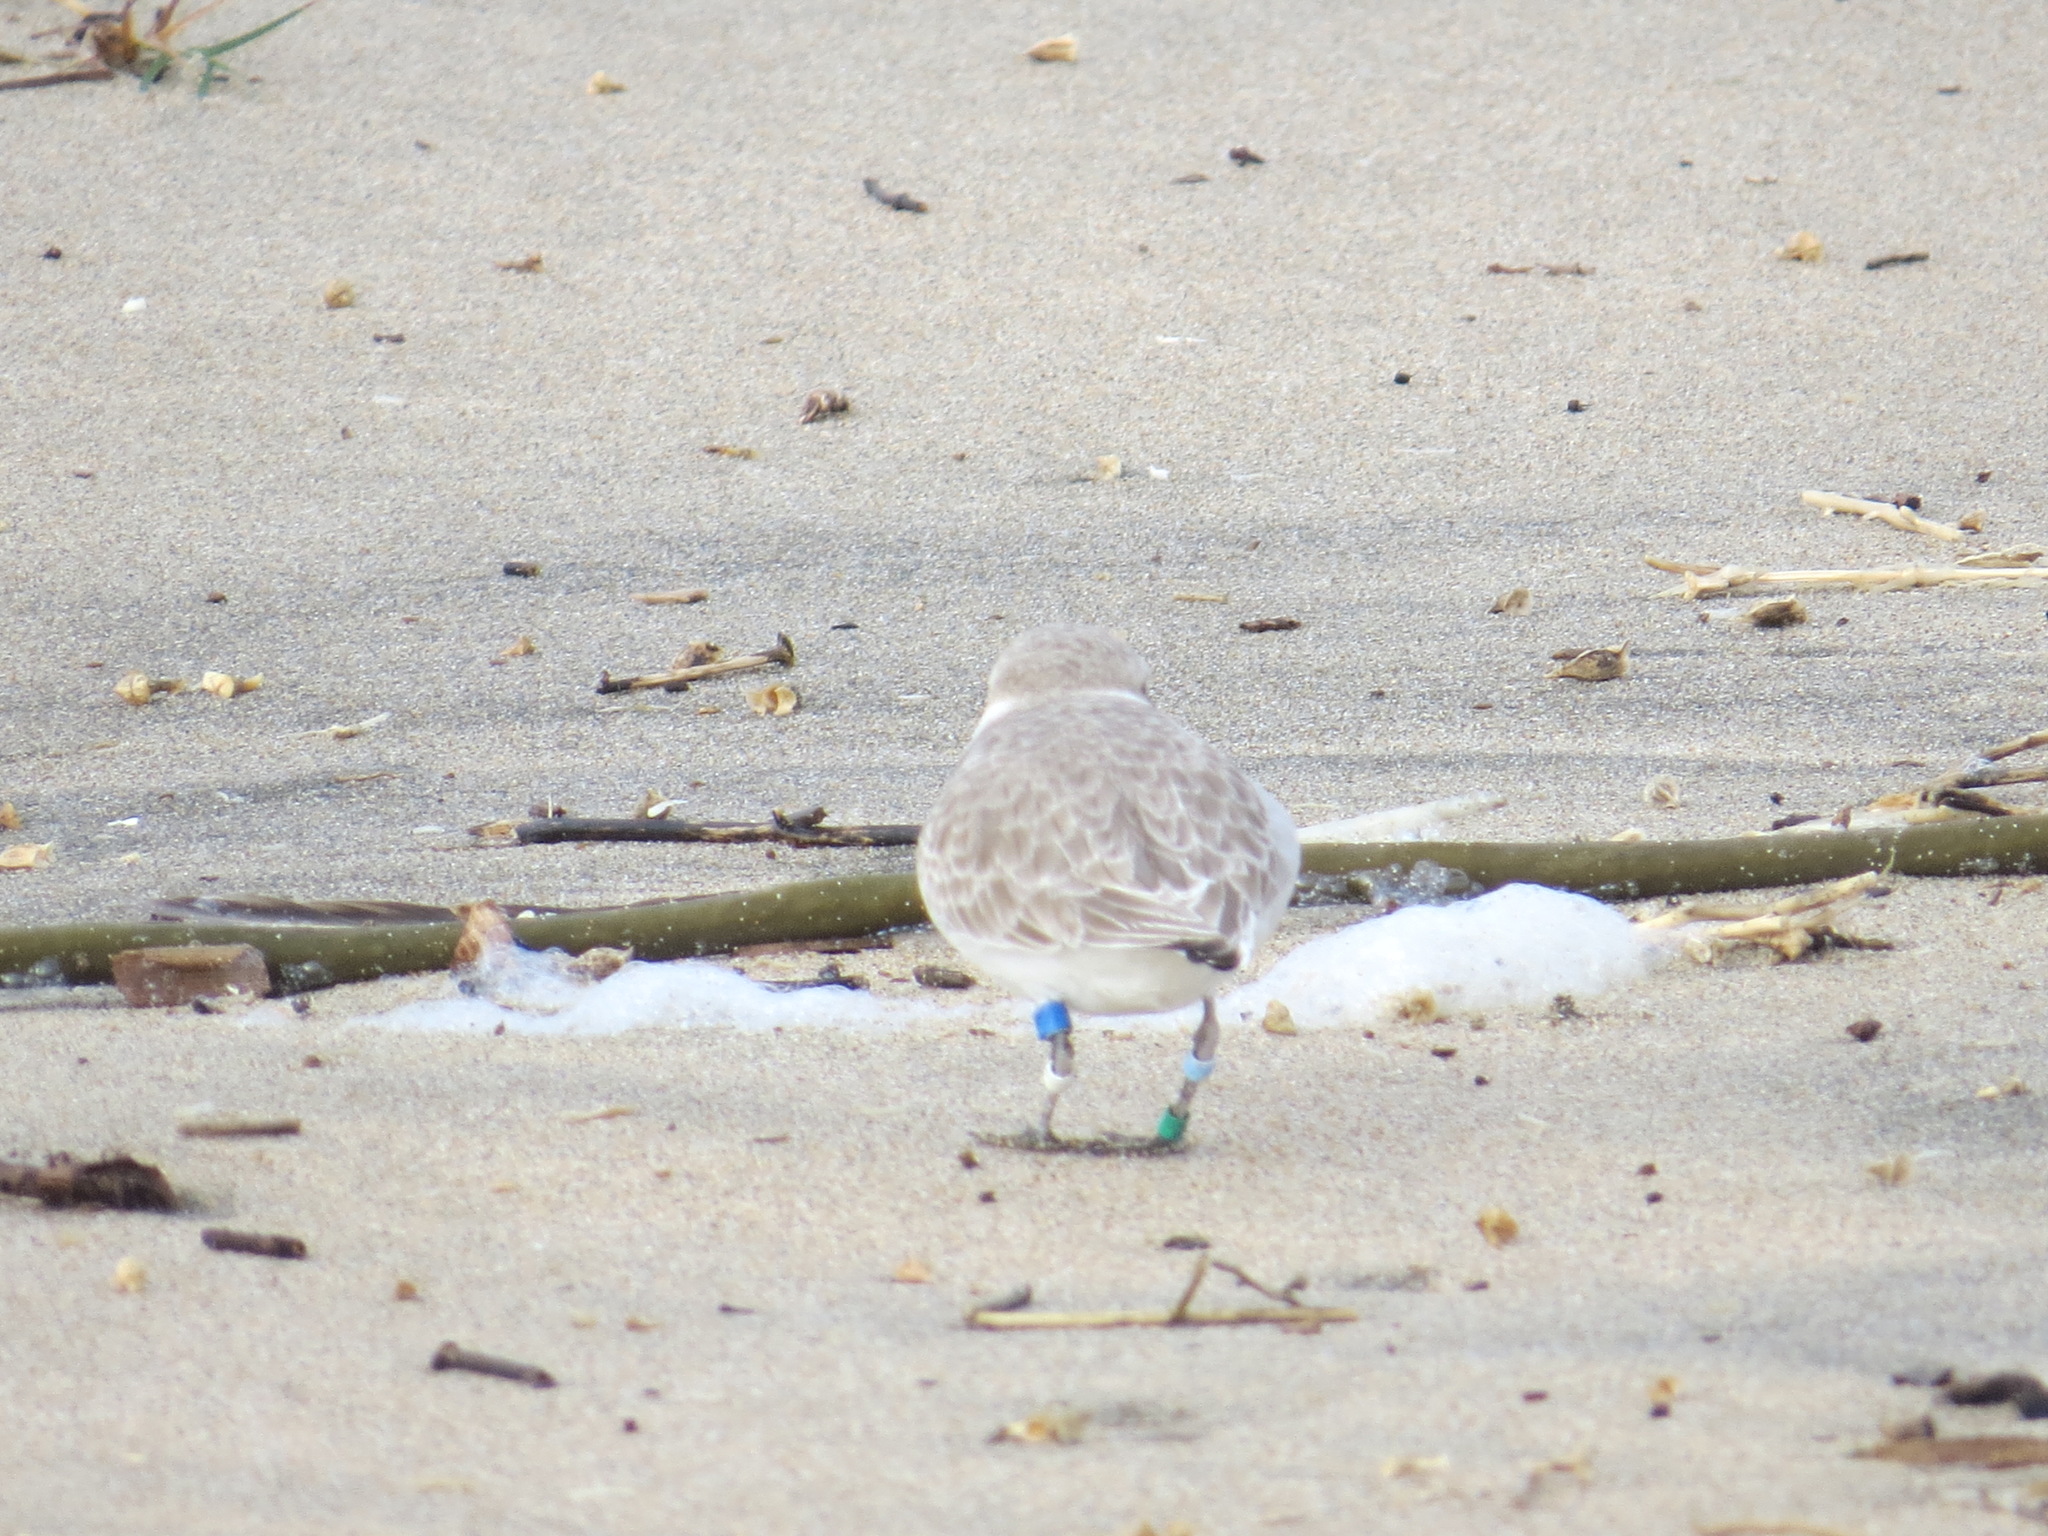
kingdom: Animalia
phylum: Chordata
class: Aves
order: Charadriiformes
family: Charadriidae
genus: Anarhynchus
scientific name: Anarhynchus
